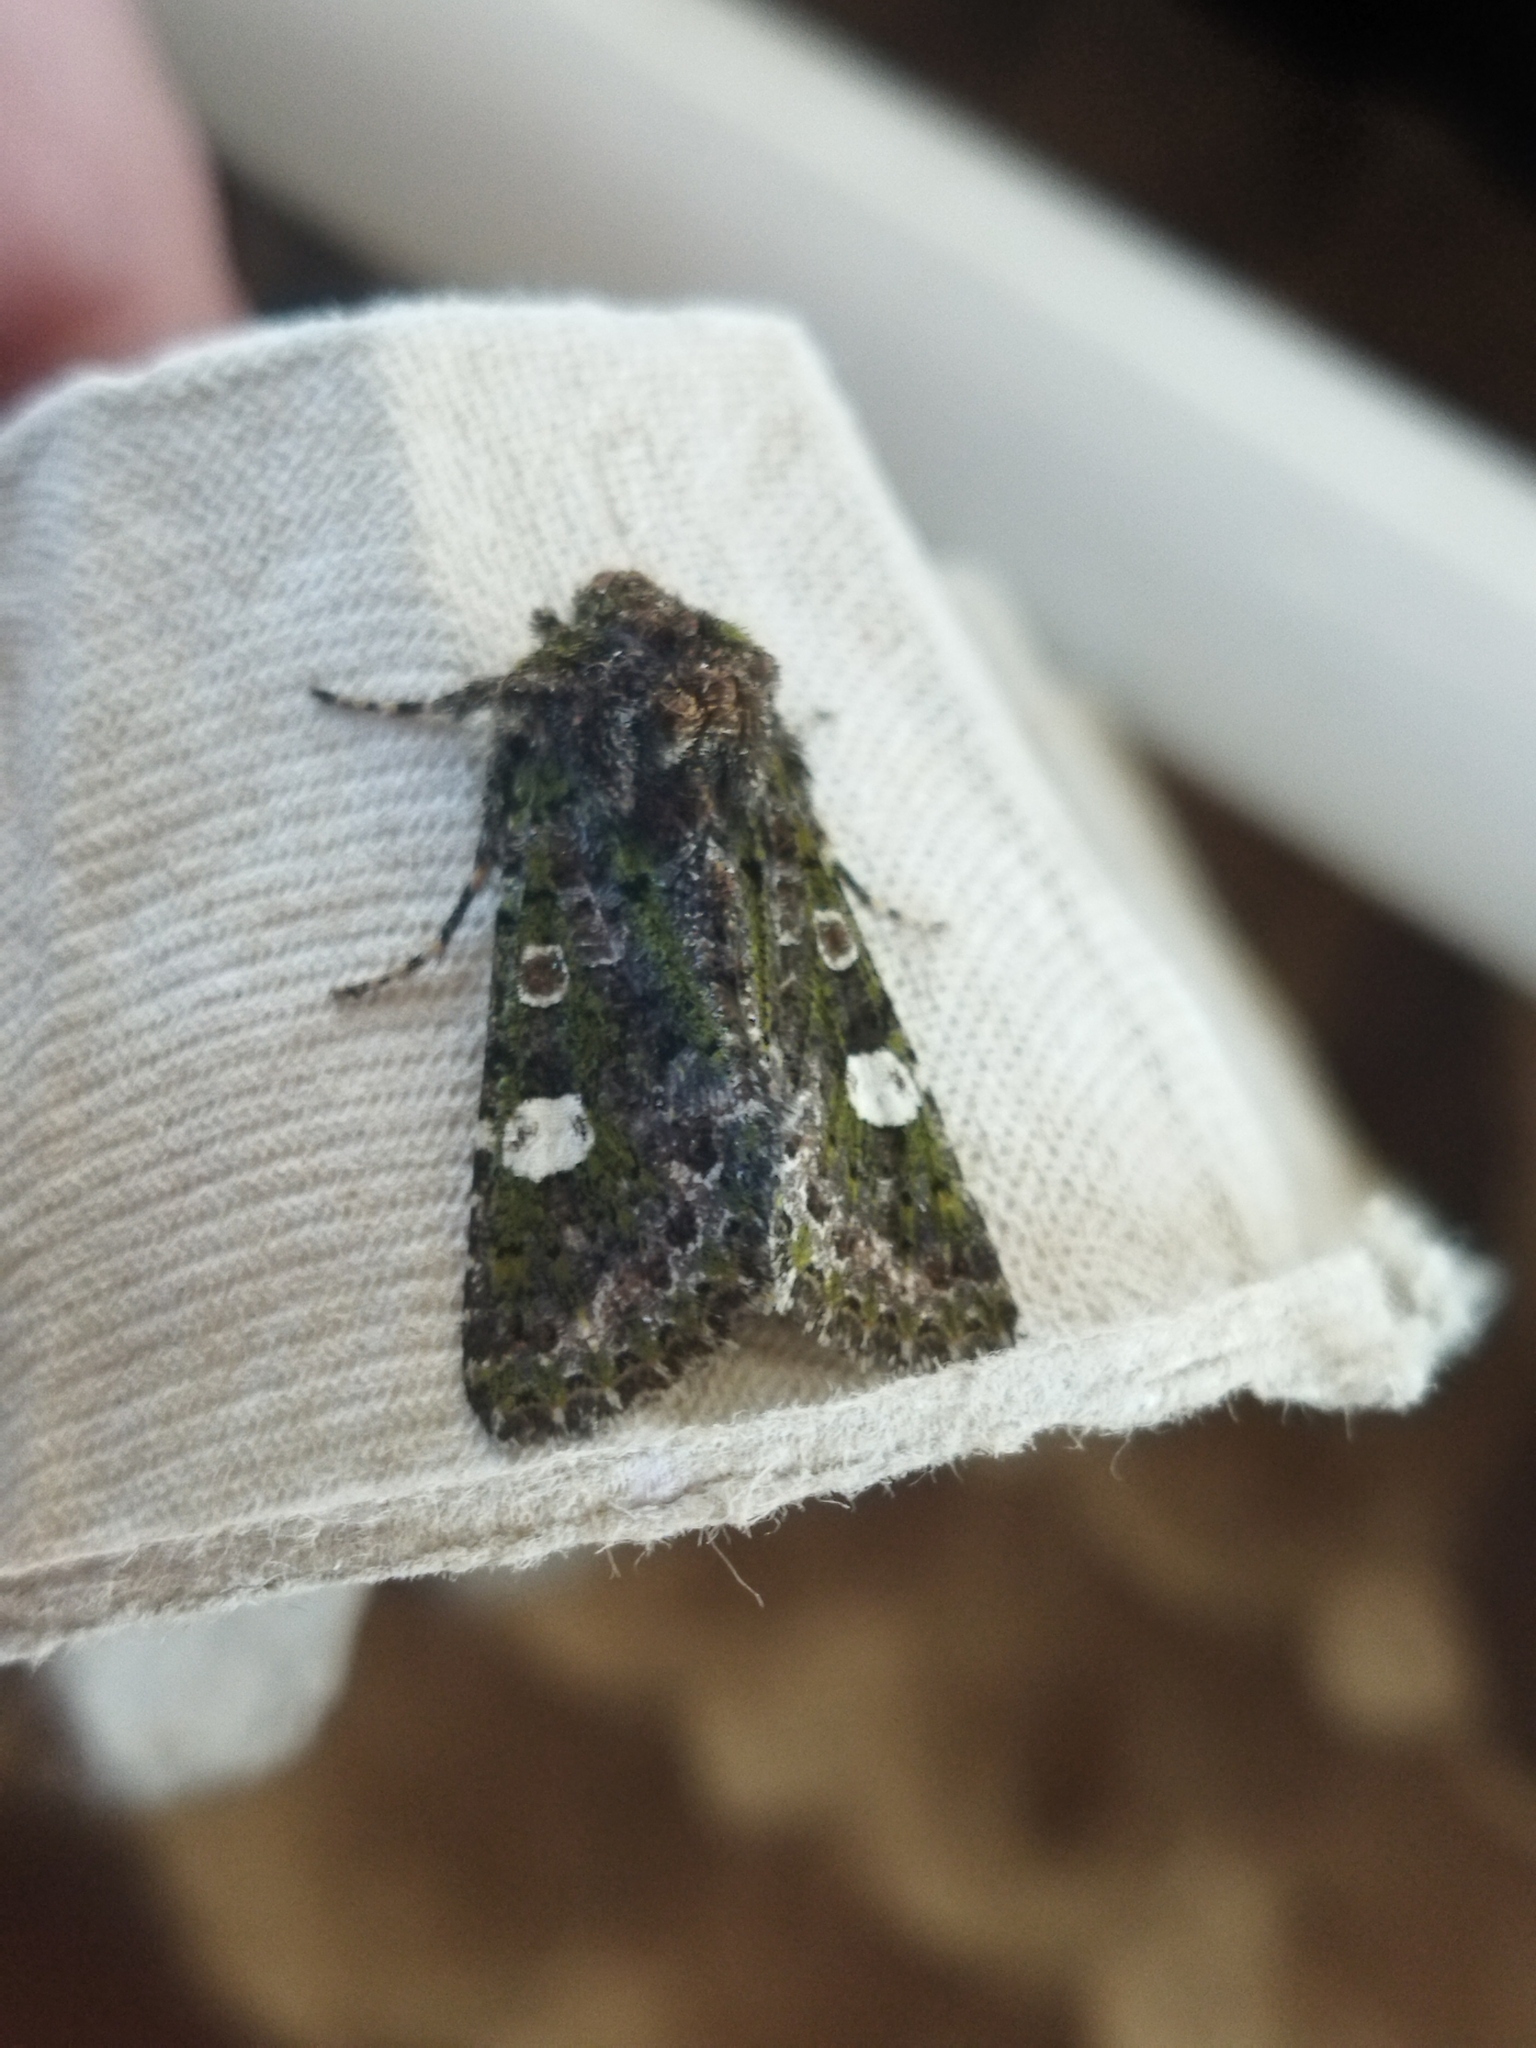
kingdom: Animalia
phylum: Arthropoda
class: Insecta
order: Lepidoptera
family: Noctuidae
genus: Valeria
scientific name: Valeria oleagina
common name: Green-brindled dot
